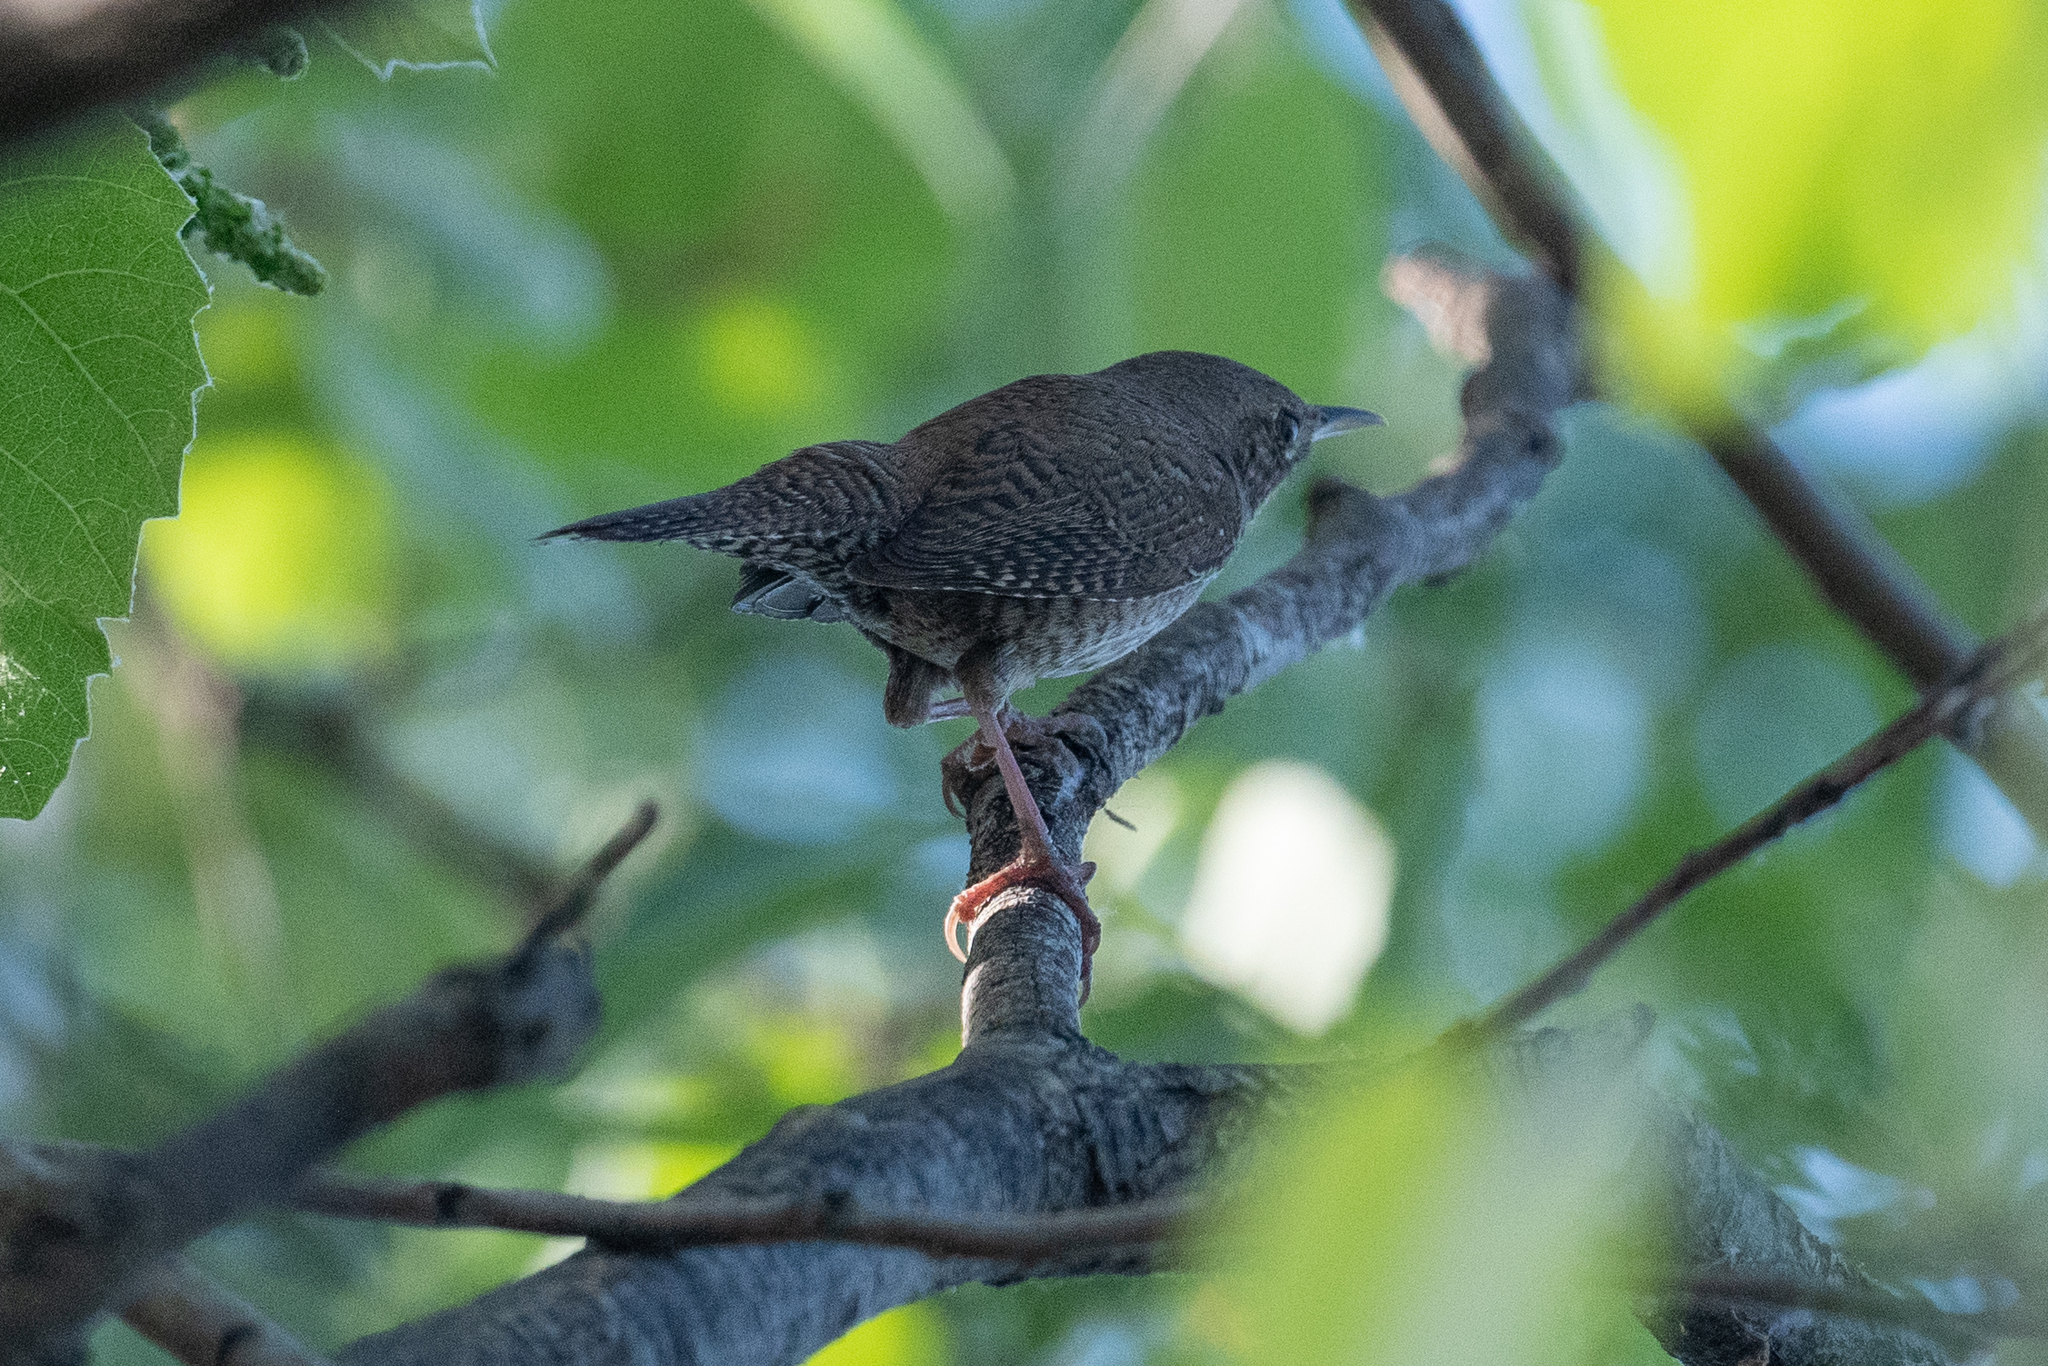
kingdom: Animalia
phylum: Chordata
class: Aves
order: Passeriformes
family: Troglodytidae
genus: Troglodytes
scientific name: Troglodytes aedon
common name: House wren
